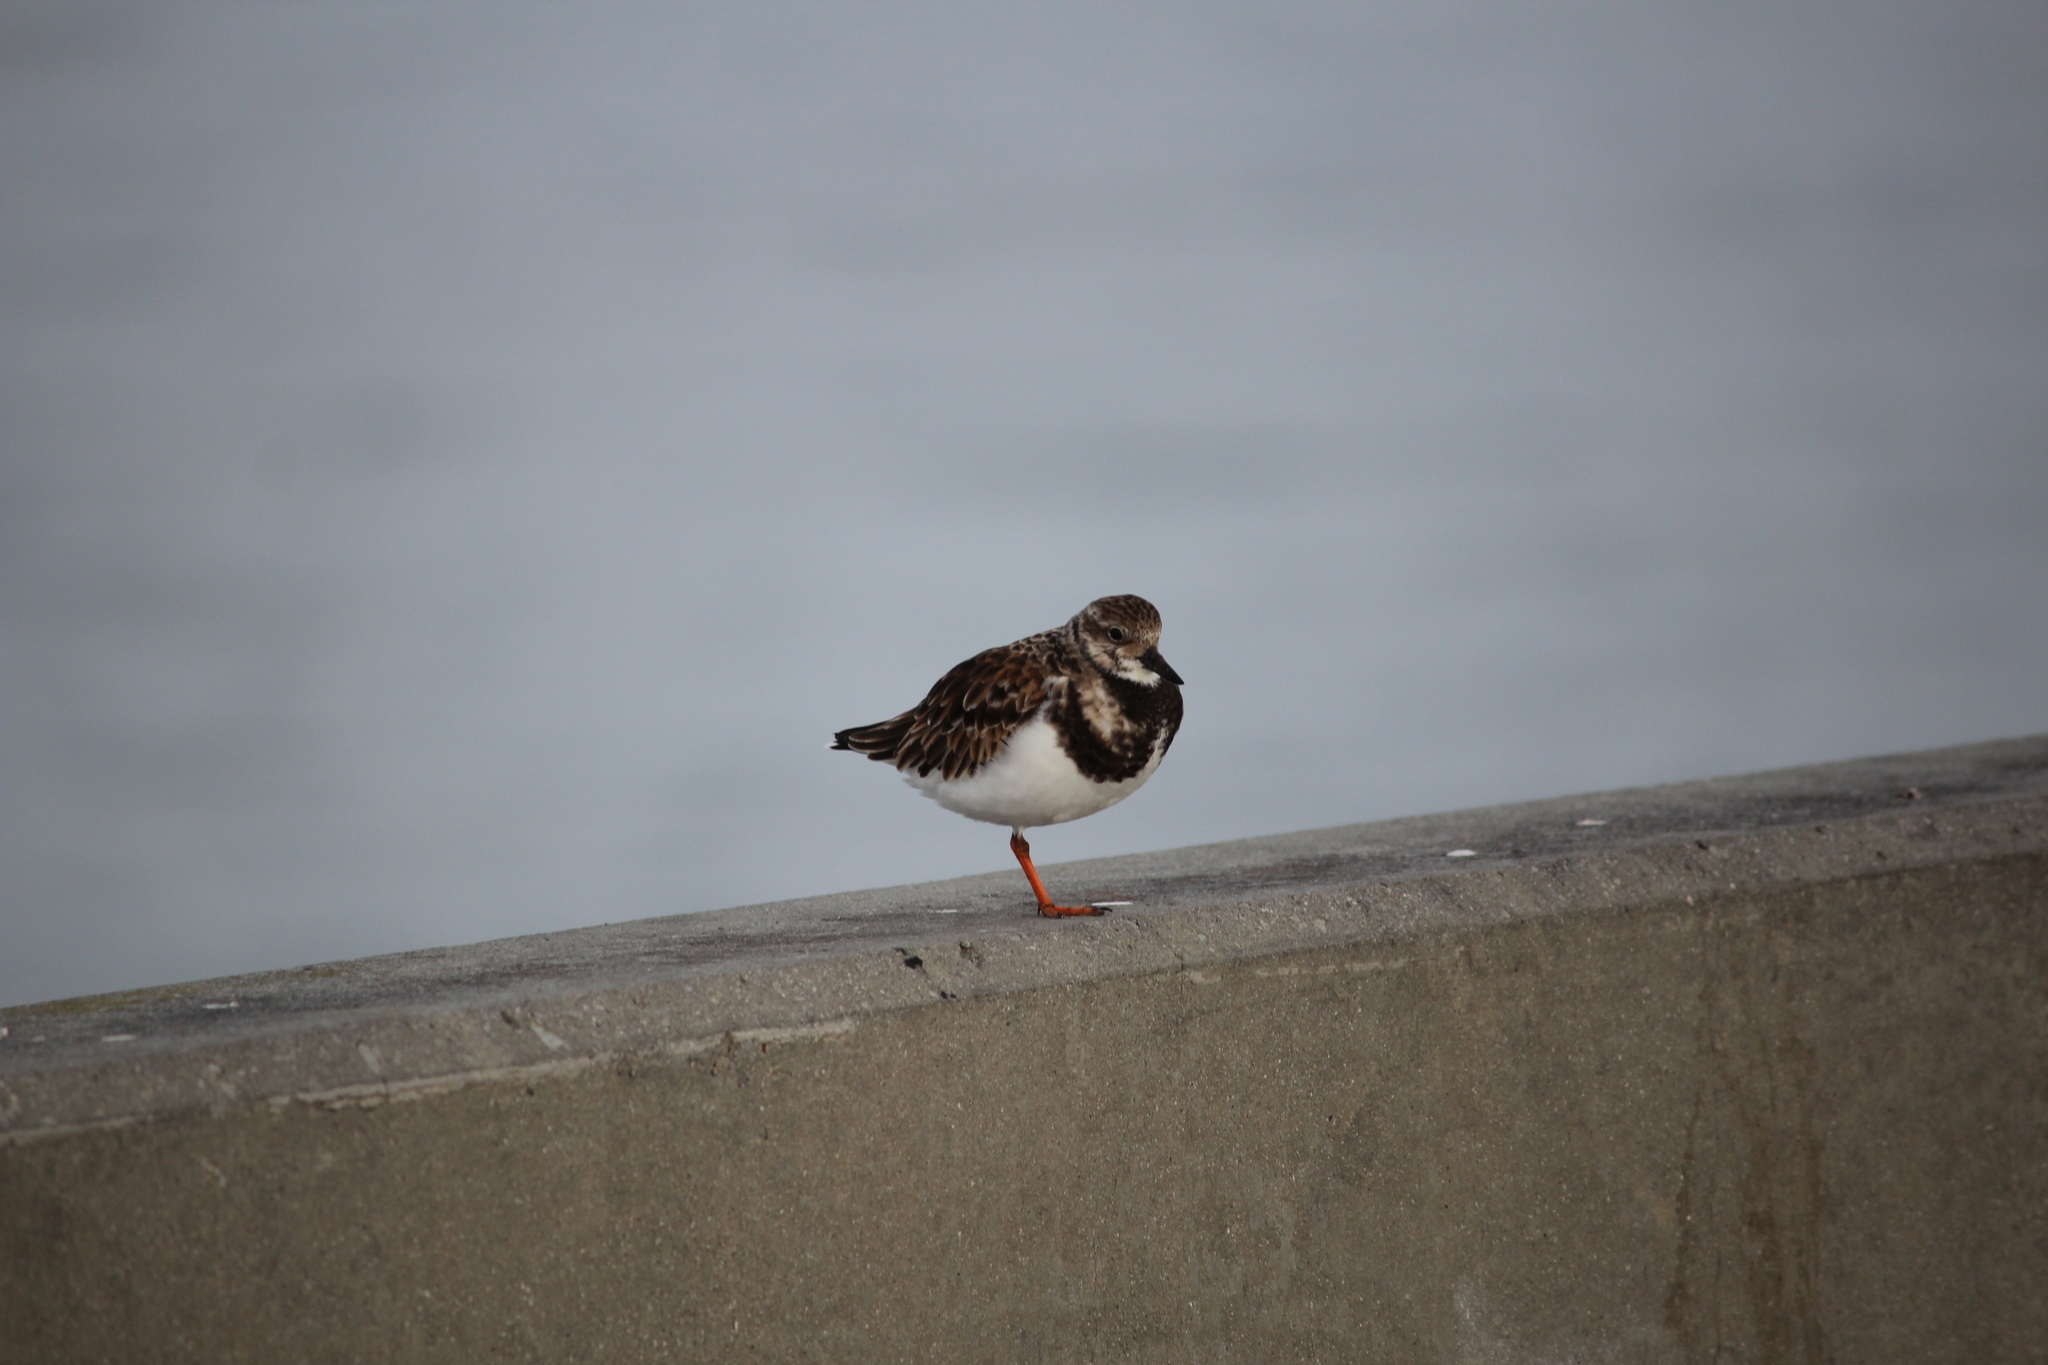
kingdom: Animalia
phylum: Chordata
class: Aves
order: Charadriiformes
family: Scolopacidae
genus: Arenaria
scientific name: Arenaria interpres
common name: Ruddy turnstone
